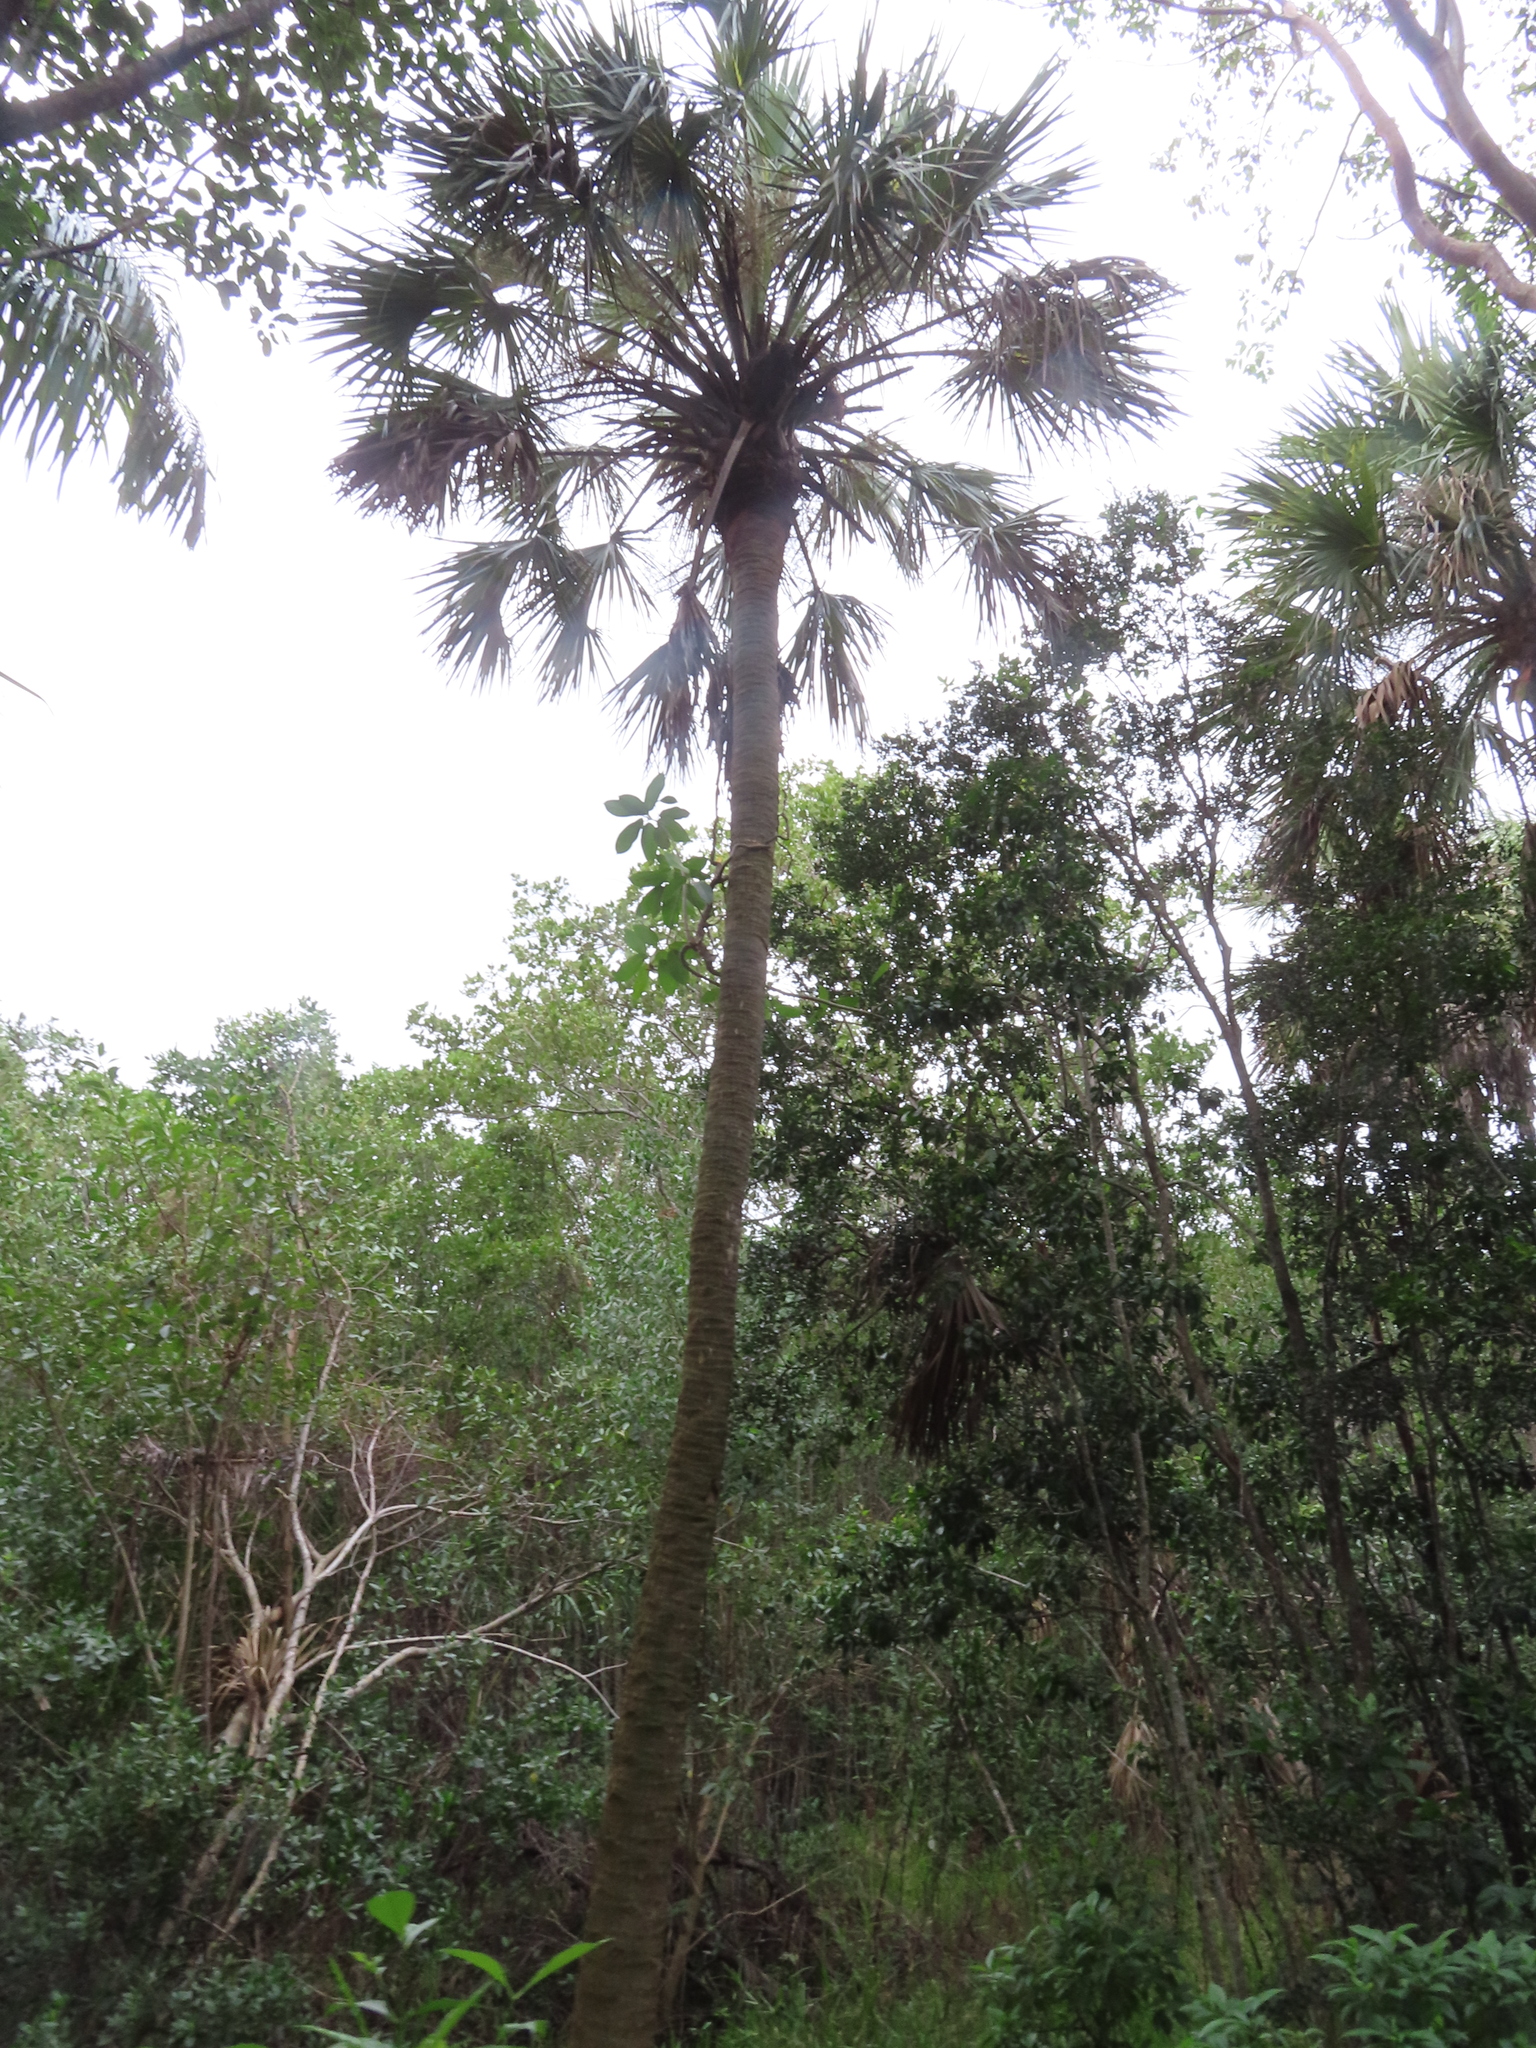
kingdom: Plantae
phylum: Tracheophyta
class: Liliopsida
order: Arecales
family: Arecaceae
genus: Sabal
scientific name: Sabal palmetto
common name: Blue palmetto
